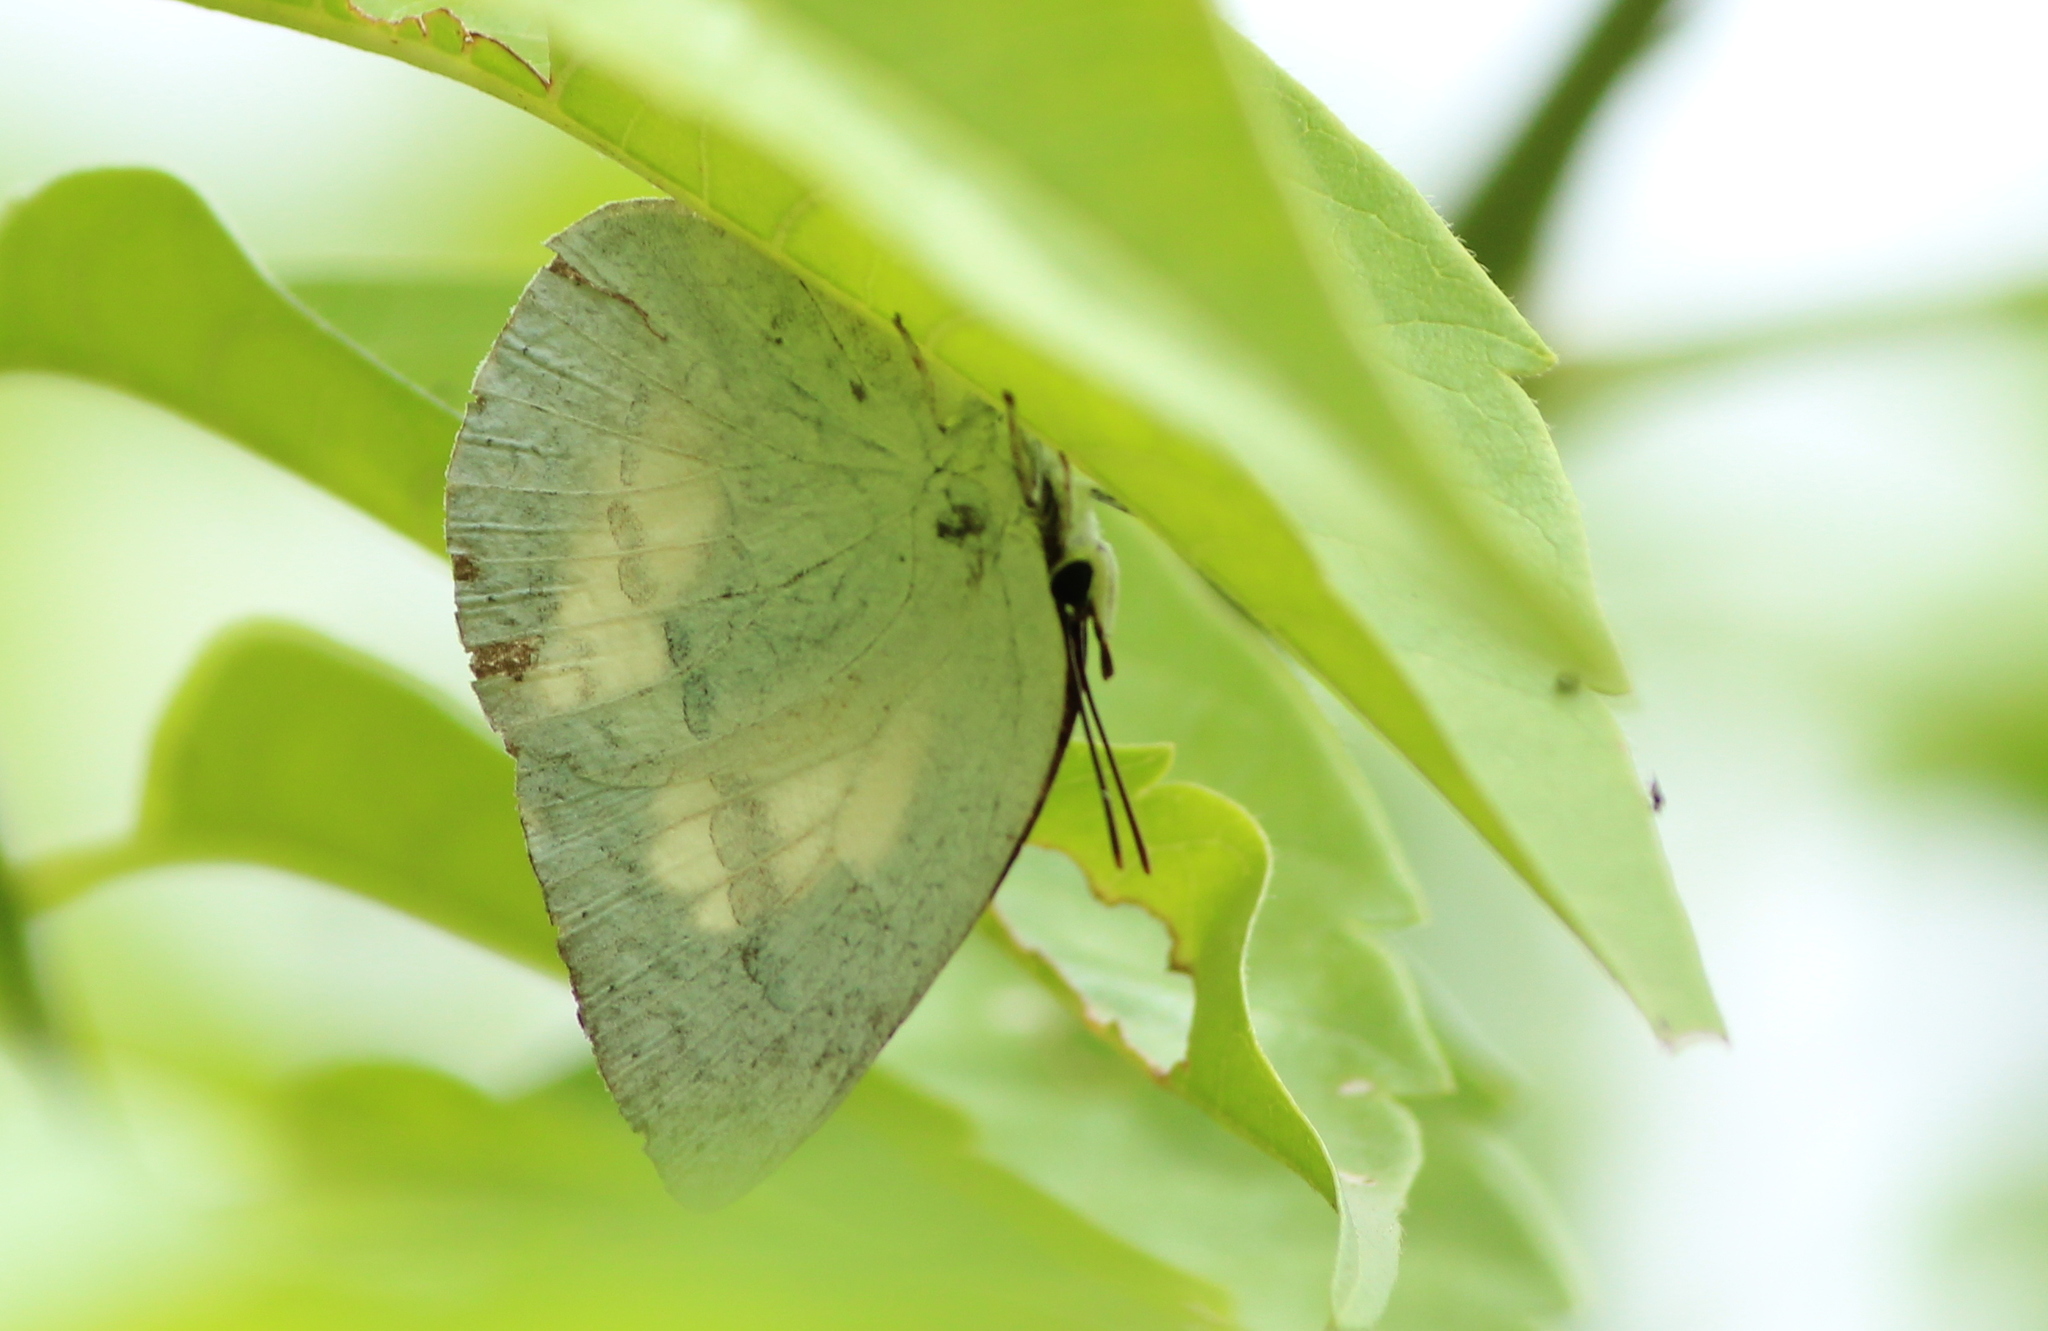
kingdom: Animalia
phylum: Arthropoda
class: Insecta
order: Lepidoptera
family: Lycaenidae
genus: Curetis
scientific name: Curetis thetis
